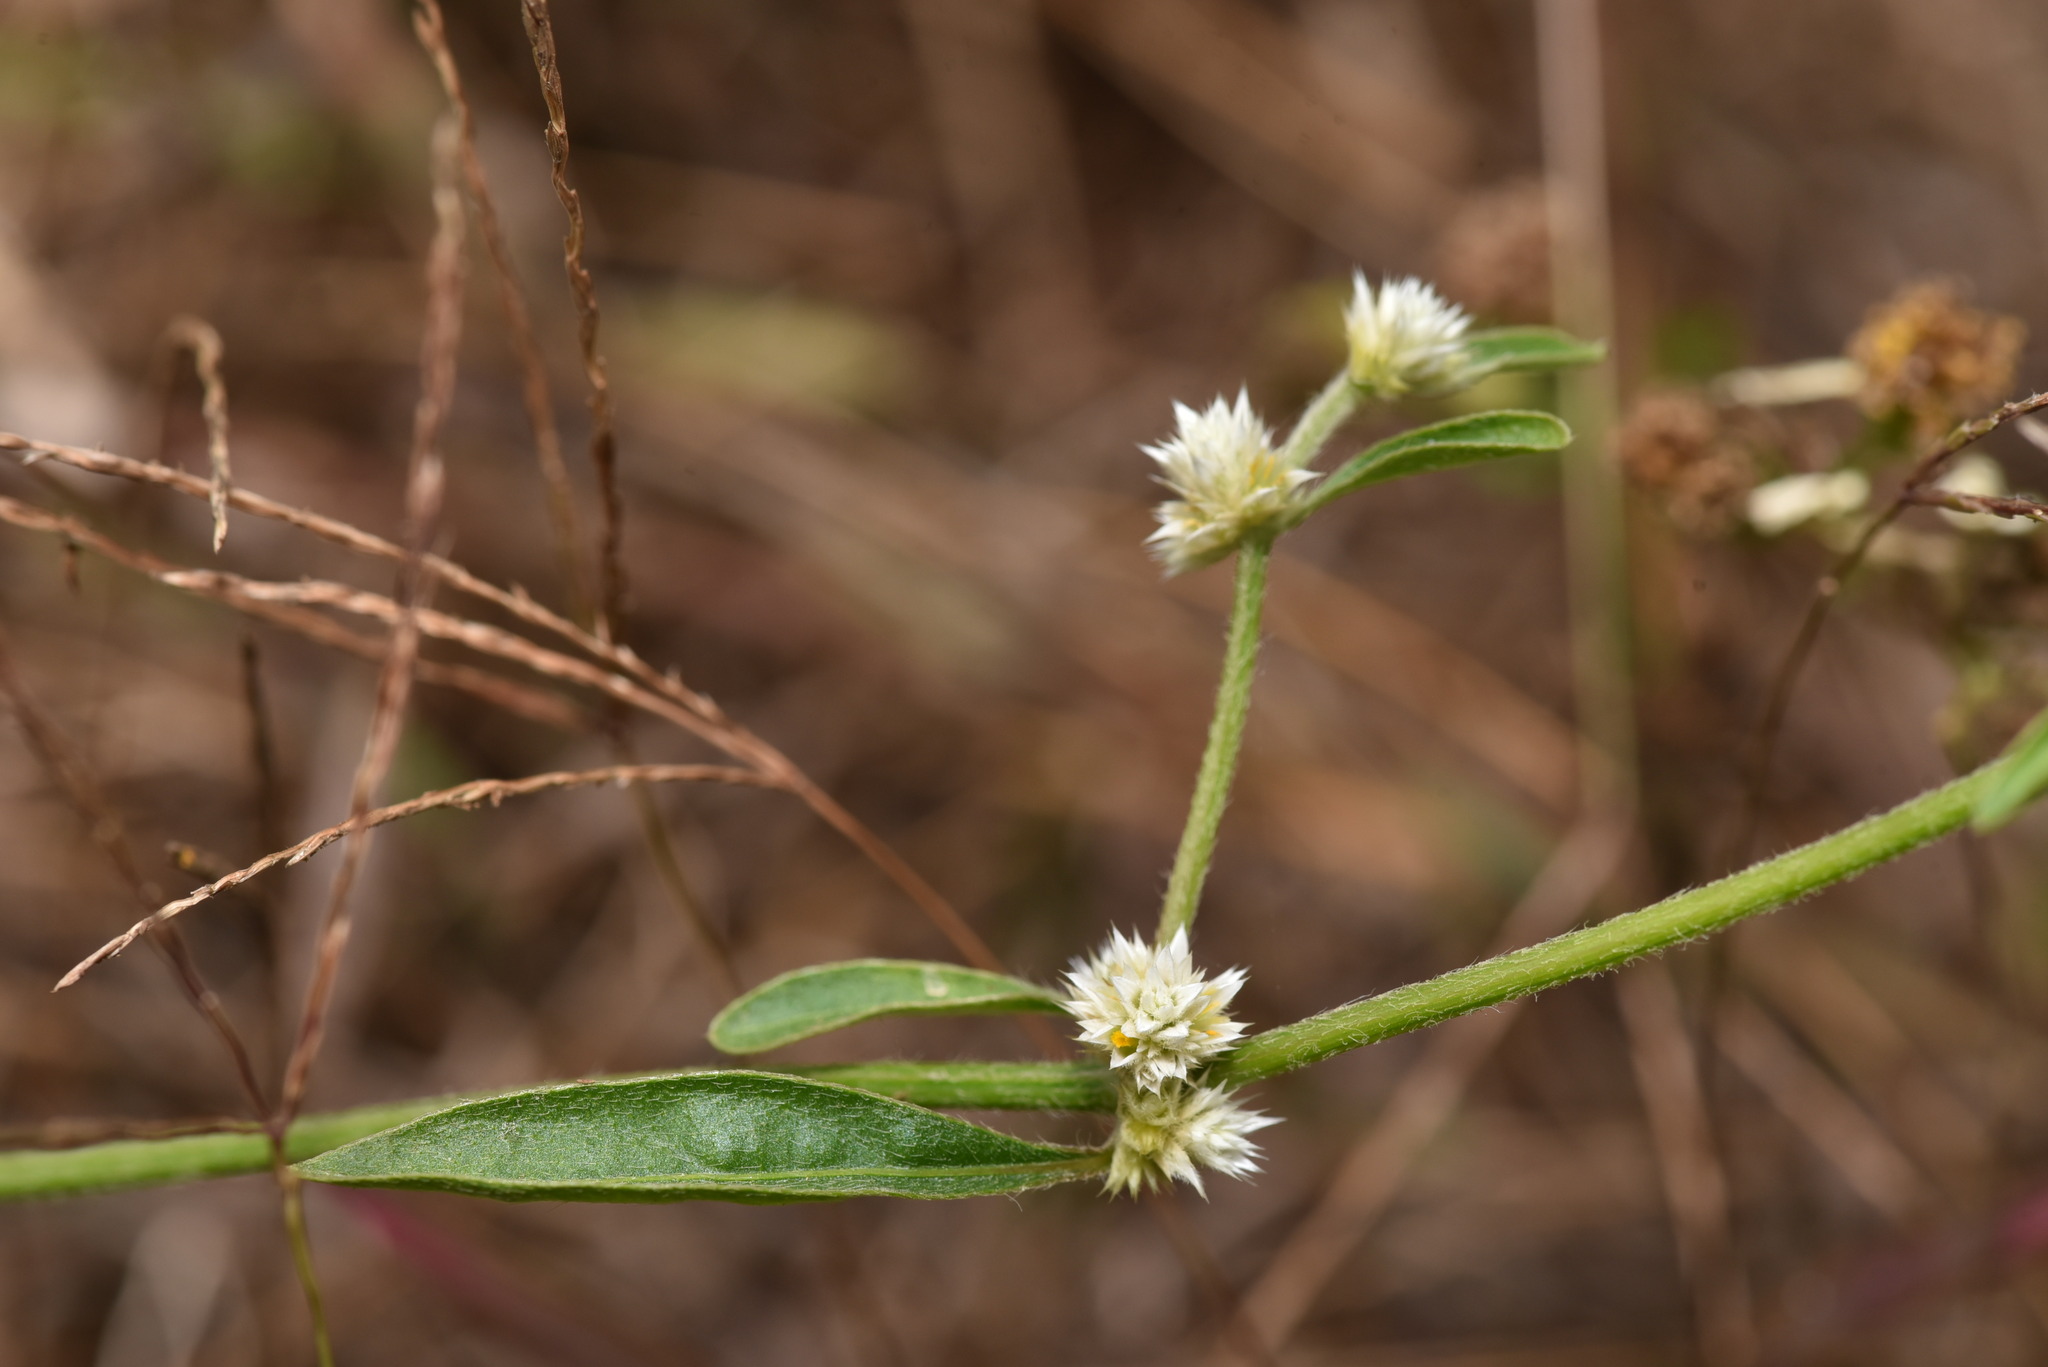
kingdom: Plantae
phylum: Tracheophyta
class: Magnoliopsida
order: Caryophyllales
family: Amaranthaceae
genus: Alternanthera
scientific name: Alternanthera ficoidea
